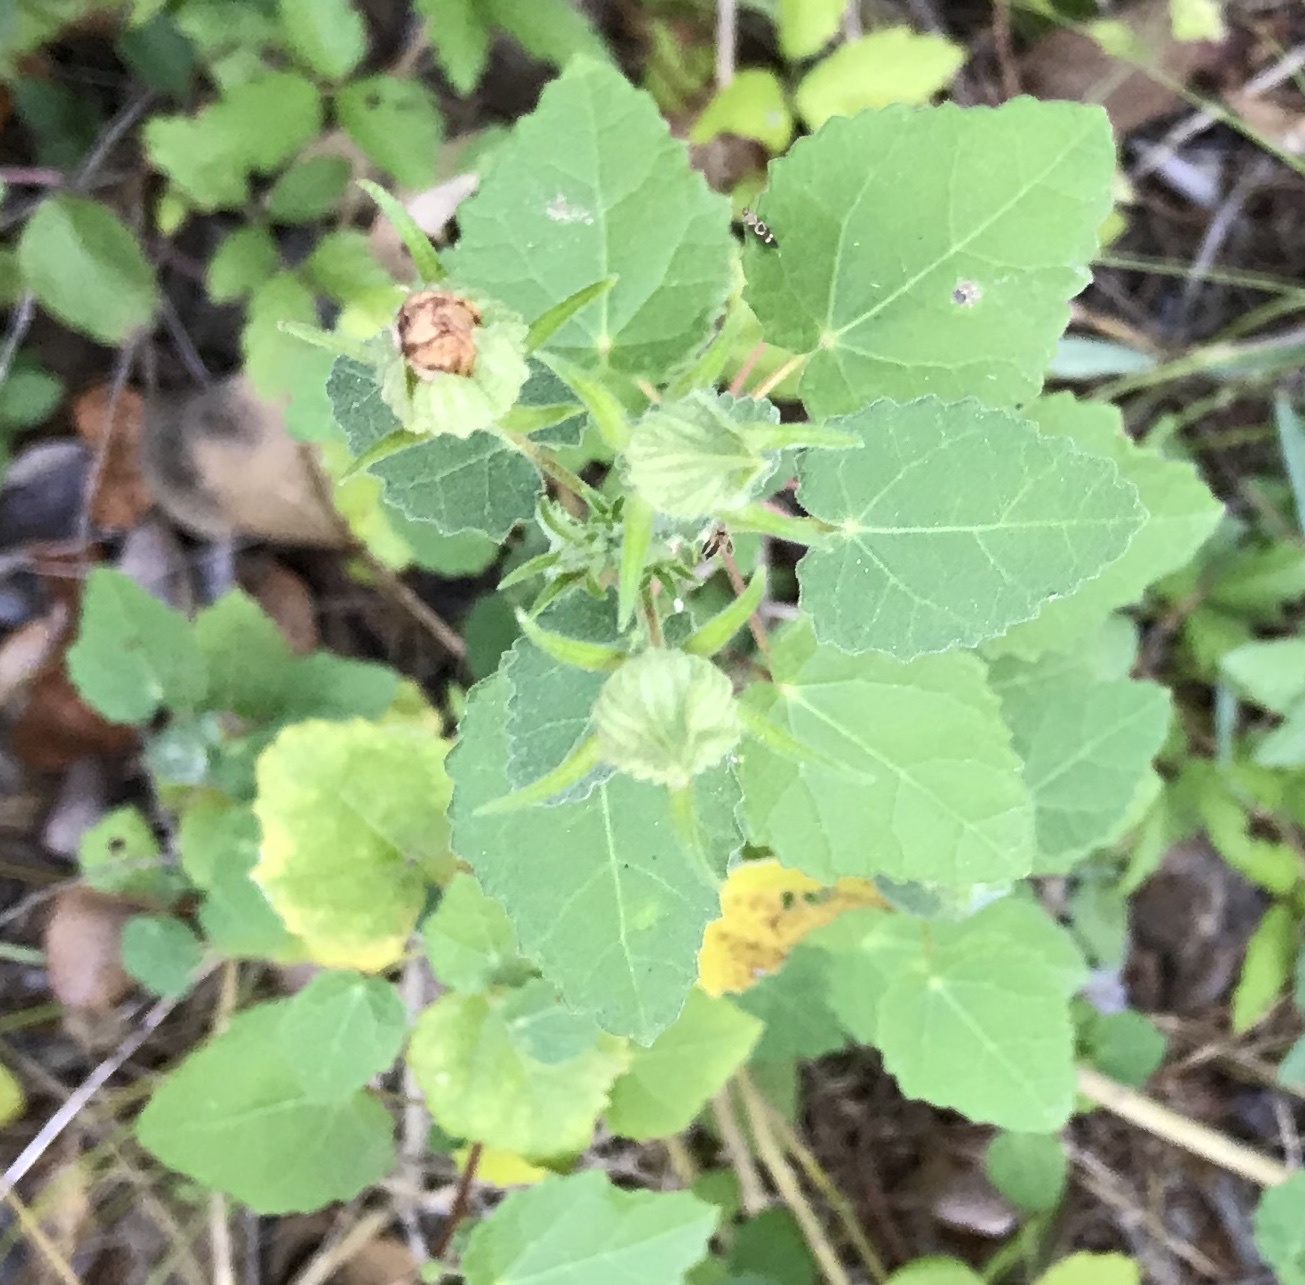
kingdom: Plantae
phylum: Tracheophyta
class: Magnoliopsida
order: Malvales
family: Malvaceae
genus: Pavonia
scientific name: Pavonia lasiopetala
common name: Texas swamp-mallow
